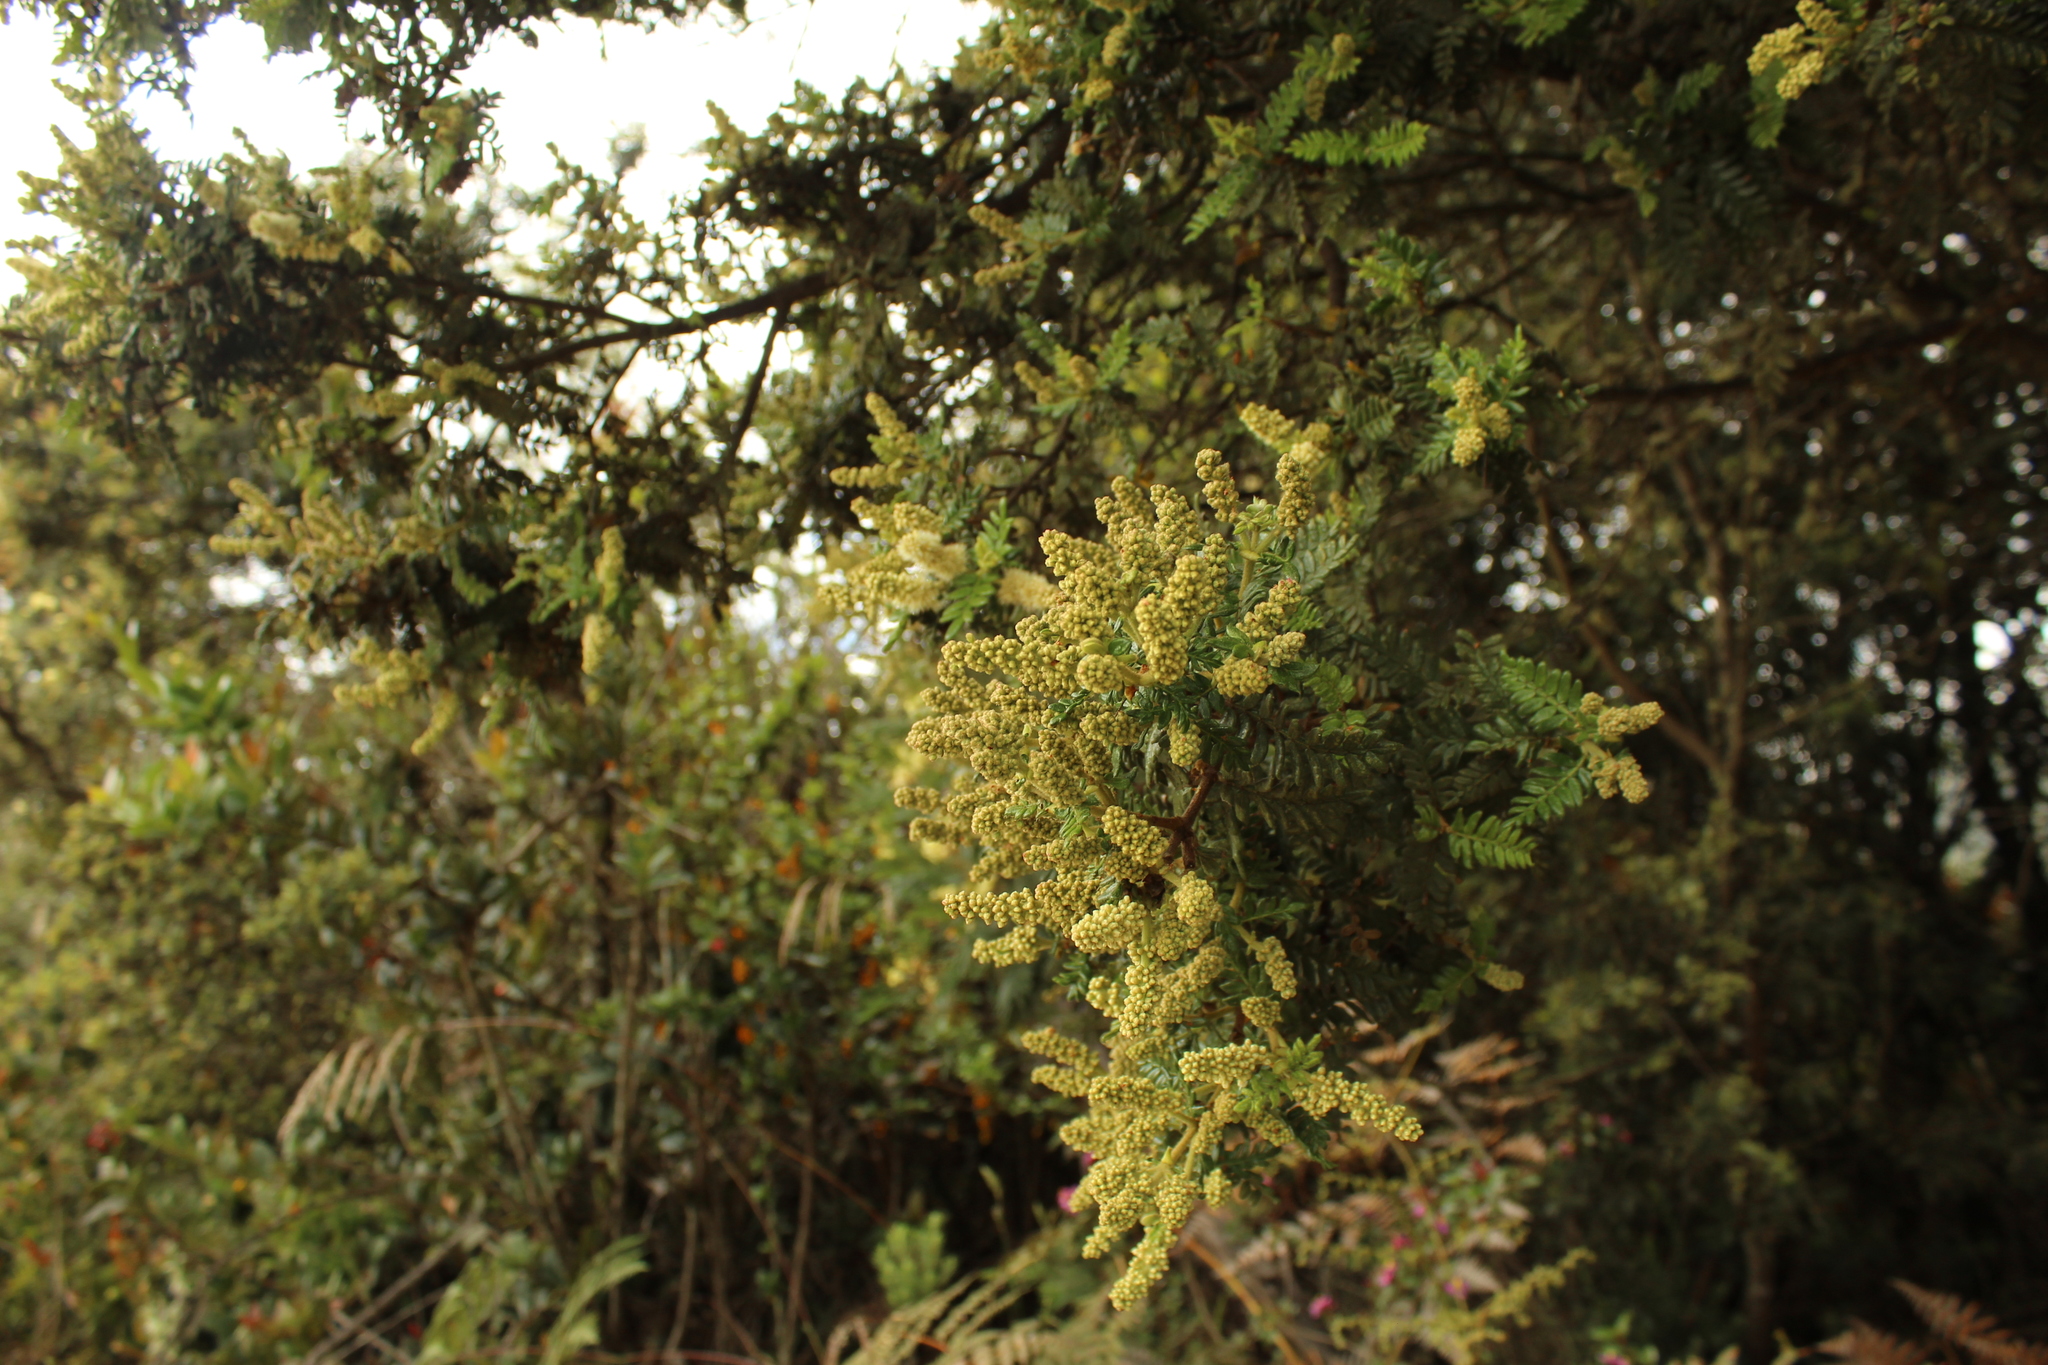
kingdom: Plantae
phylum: Tracheophyta
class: Magnoliopsida
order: Oxalidales
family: Cunoniaceae
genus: Weinmannia
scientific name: Weinmannia tomentosa
